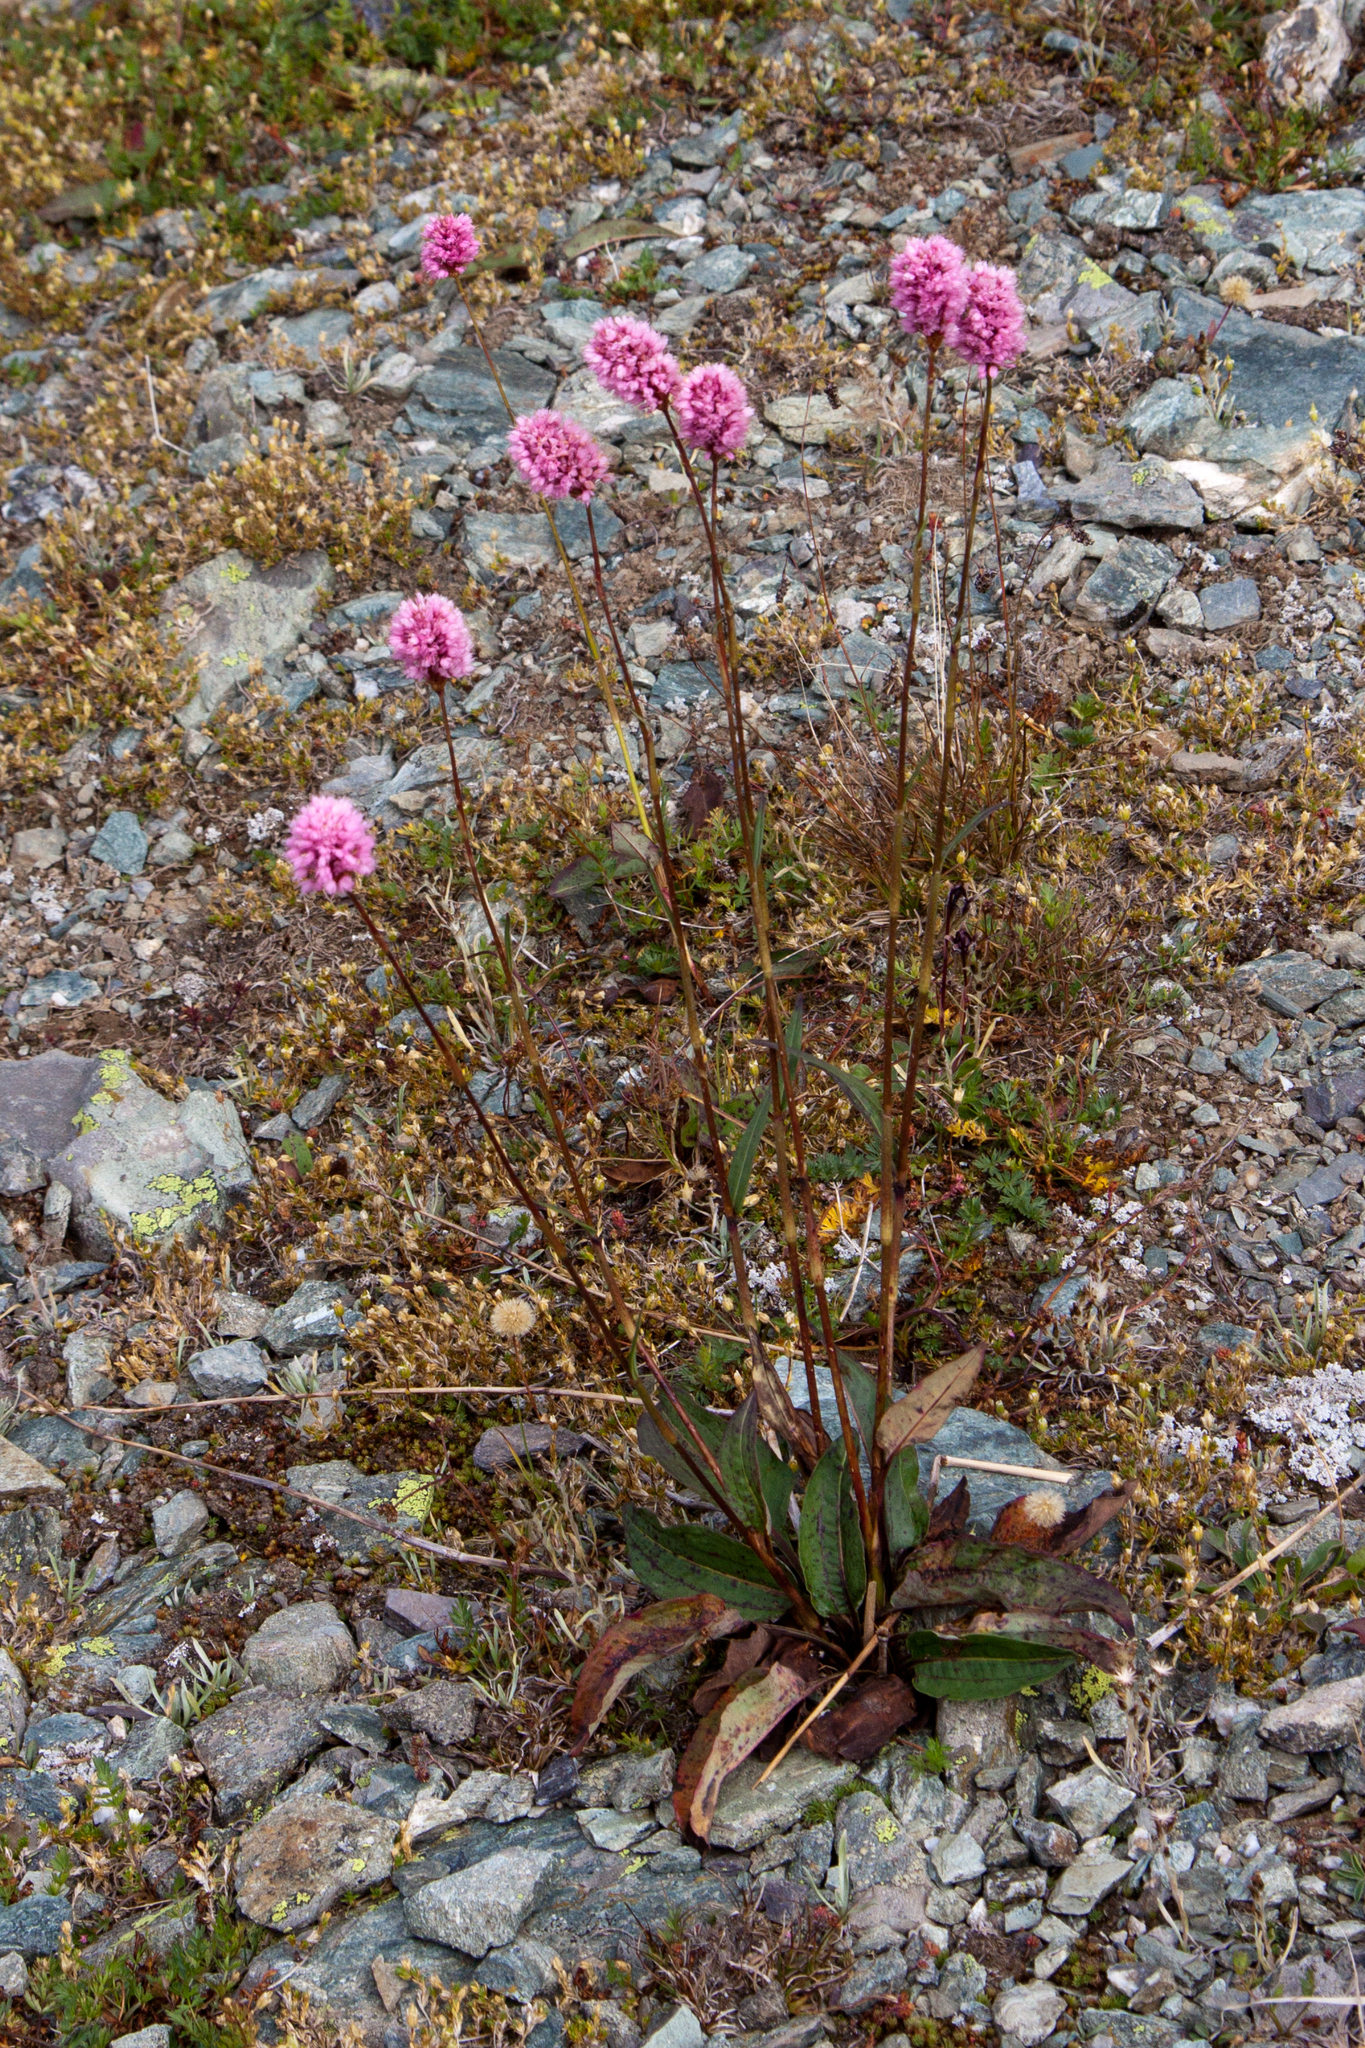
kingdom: Plantae
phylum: Tracheophyta
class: Magnoliopsida
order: Caryophyllales
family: Polygonaceae
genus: Bistorta
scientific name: Bistorta carnea
